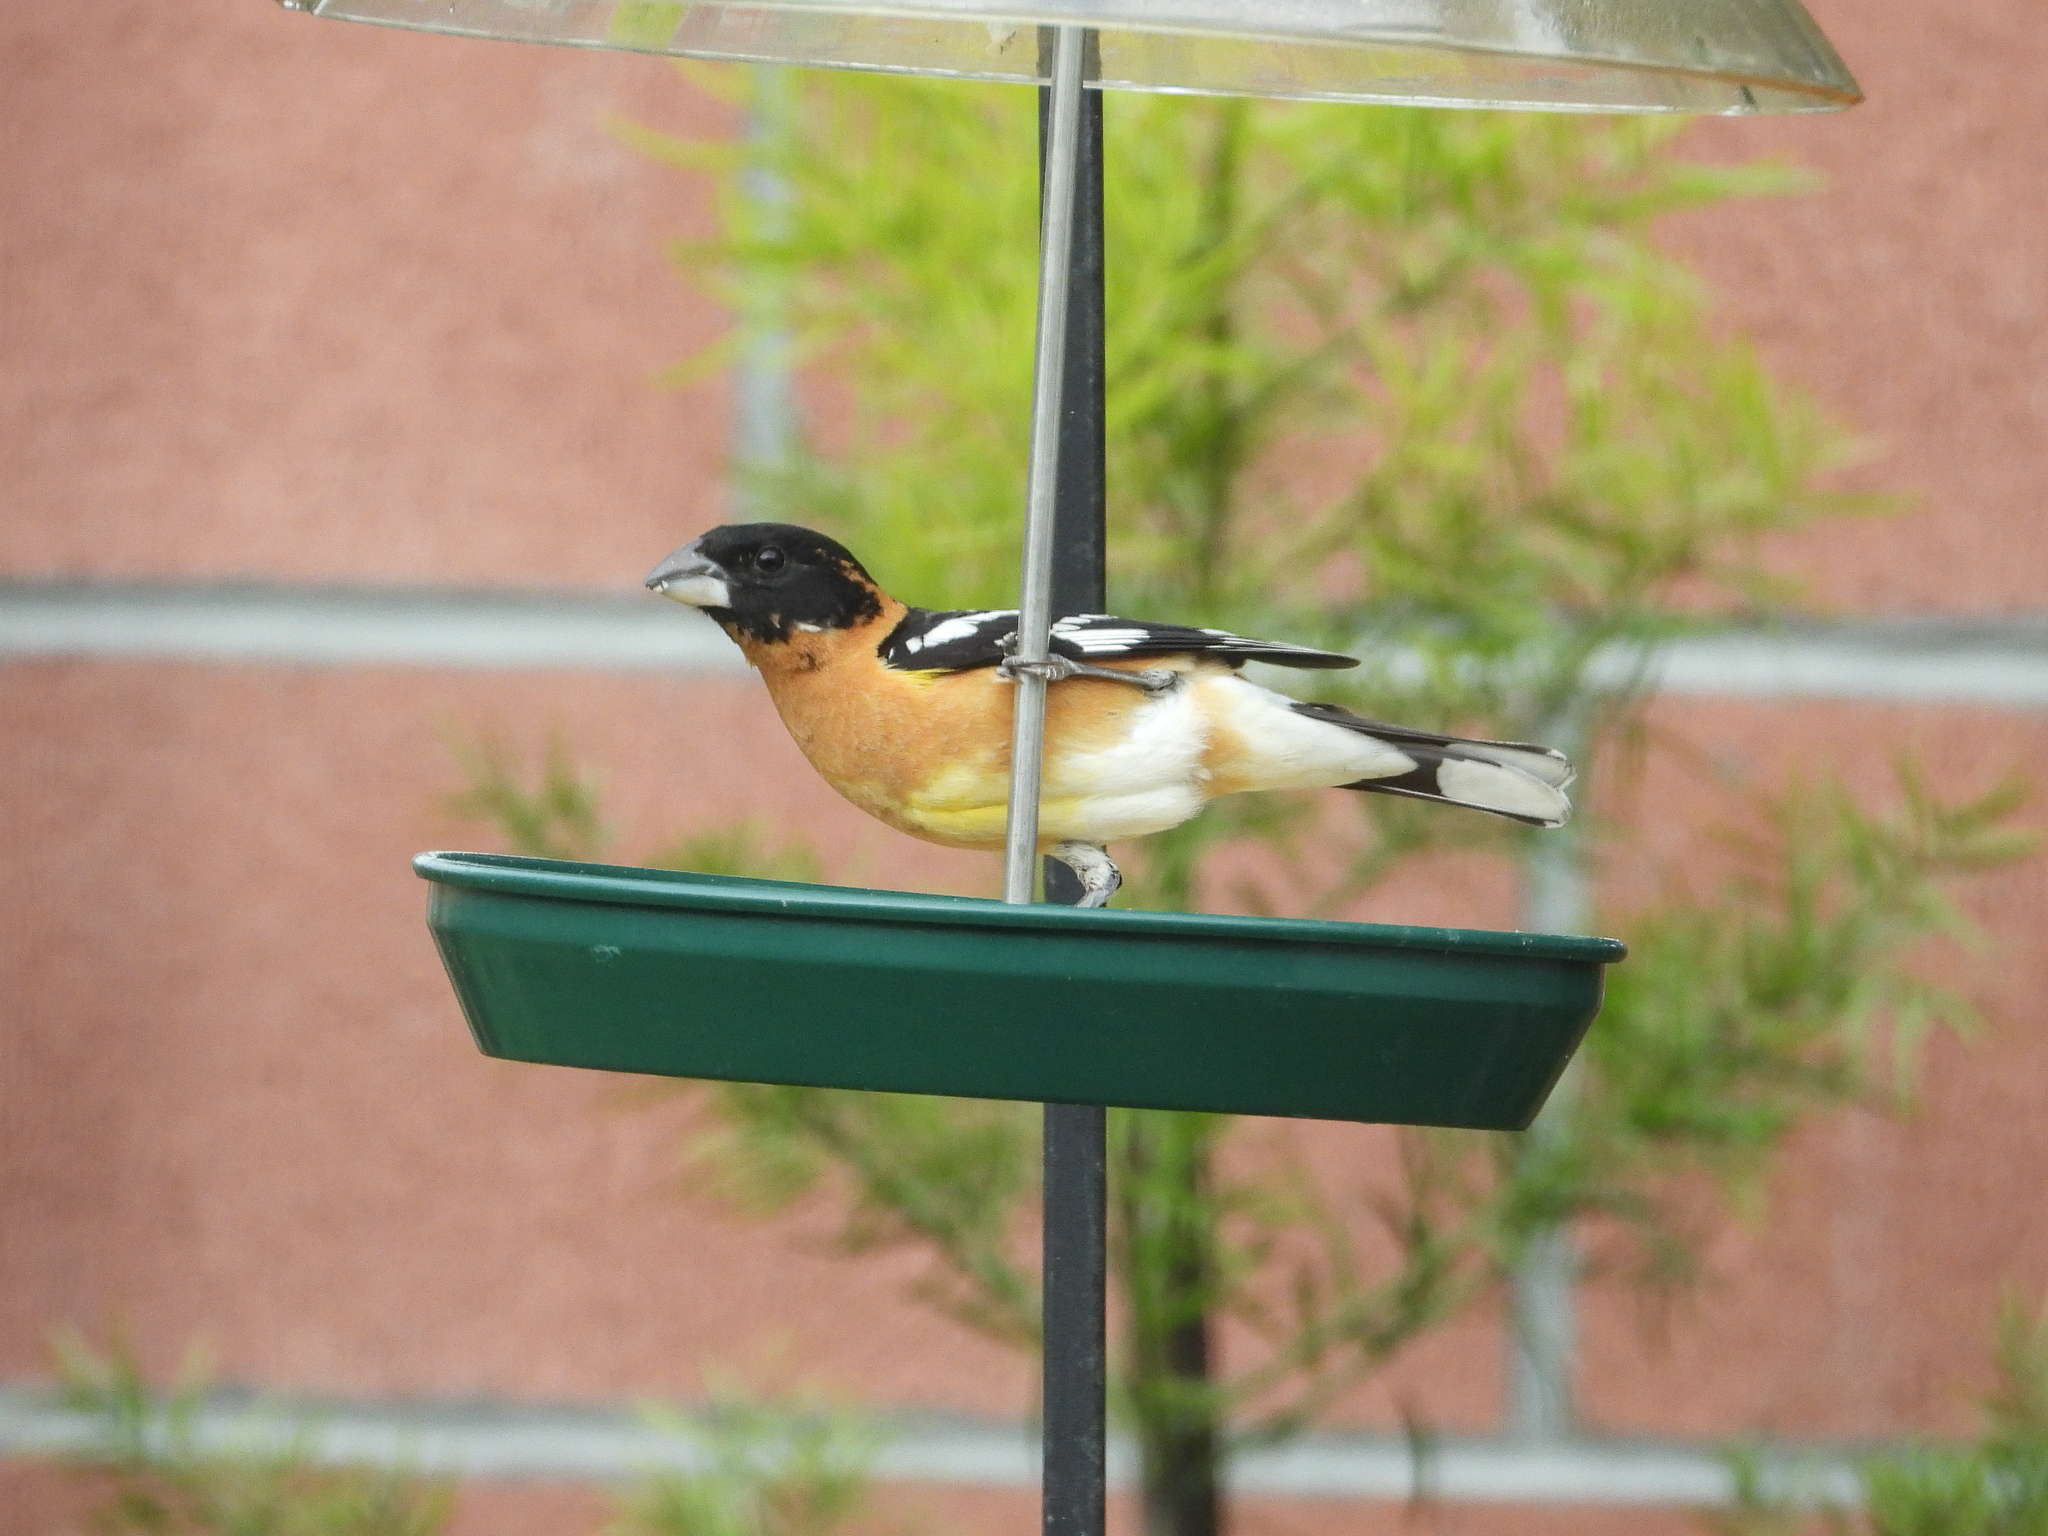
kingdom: Animalia
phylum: Chordata
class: Aves
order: Passeriformes
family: Cardinalidae
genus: Pheucticus
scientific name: Pheucticus melanocephalus
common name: Black-headed grosbeak
